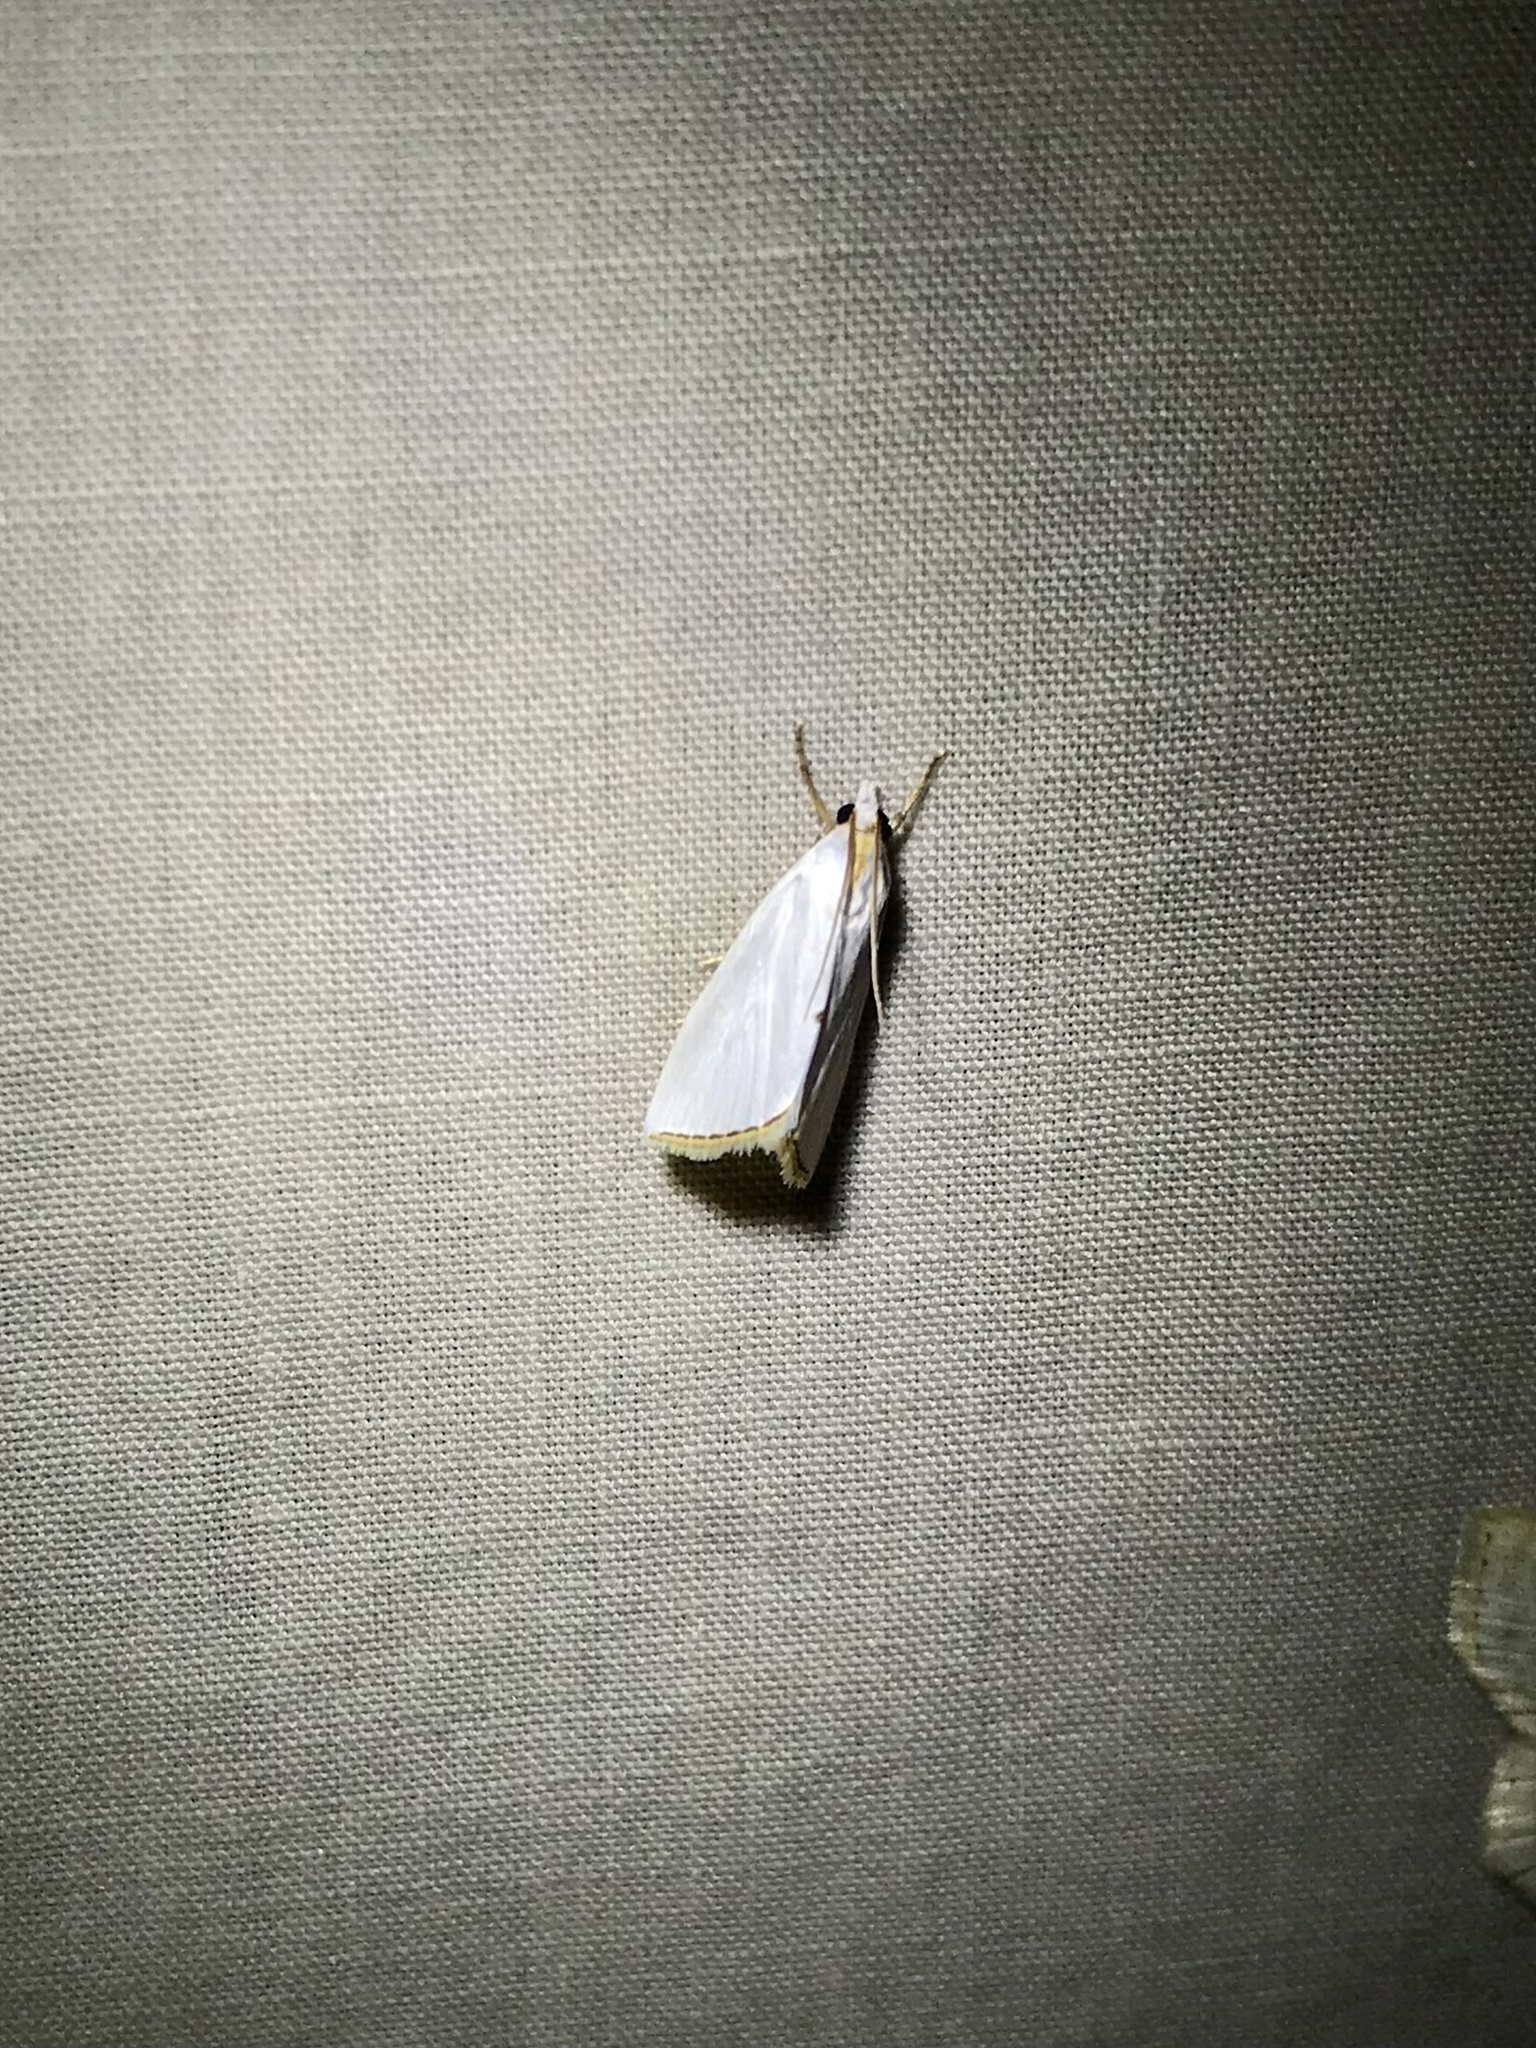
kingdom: Animalia
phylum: Arthropoda
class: Insecta
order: Lepidoptera
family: Crambidae
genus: Argyria
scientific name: Argyria nivalis
